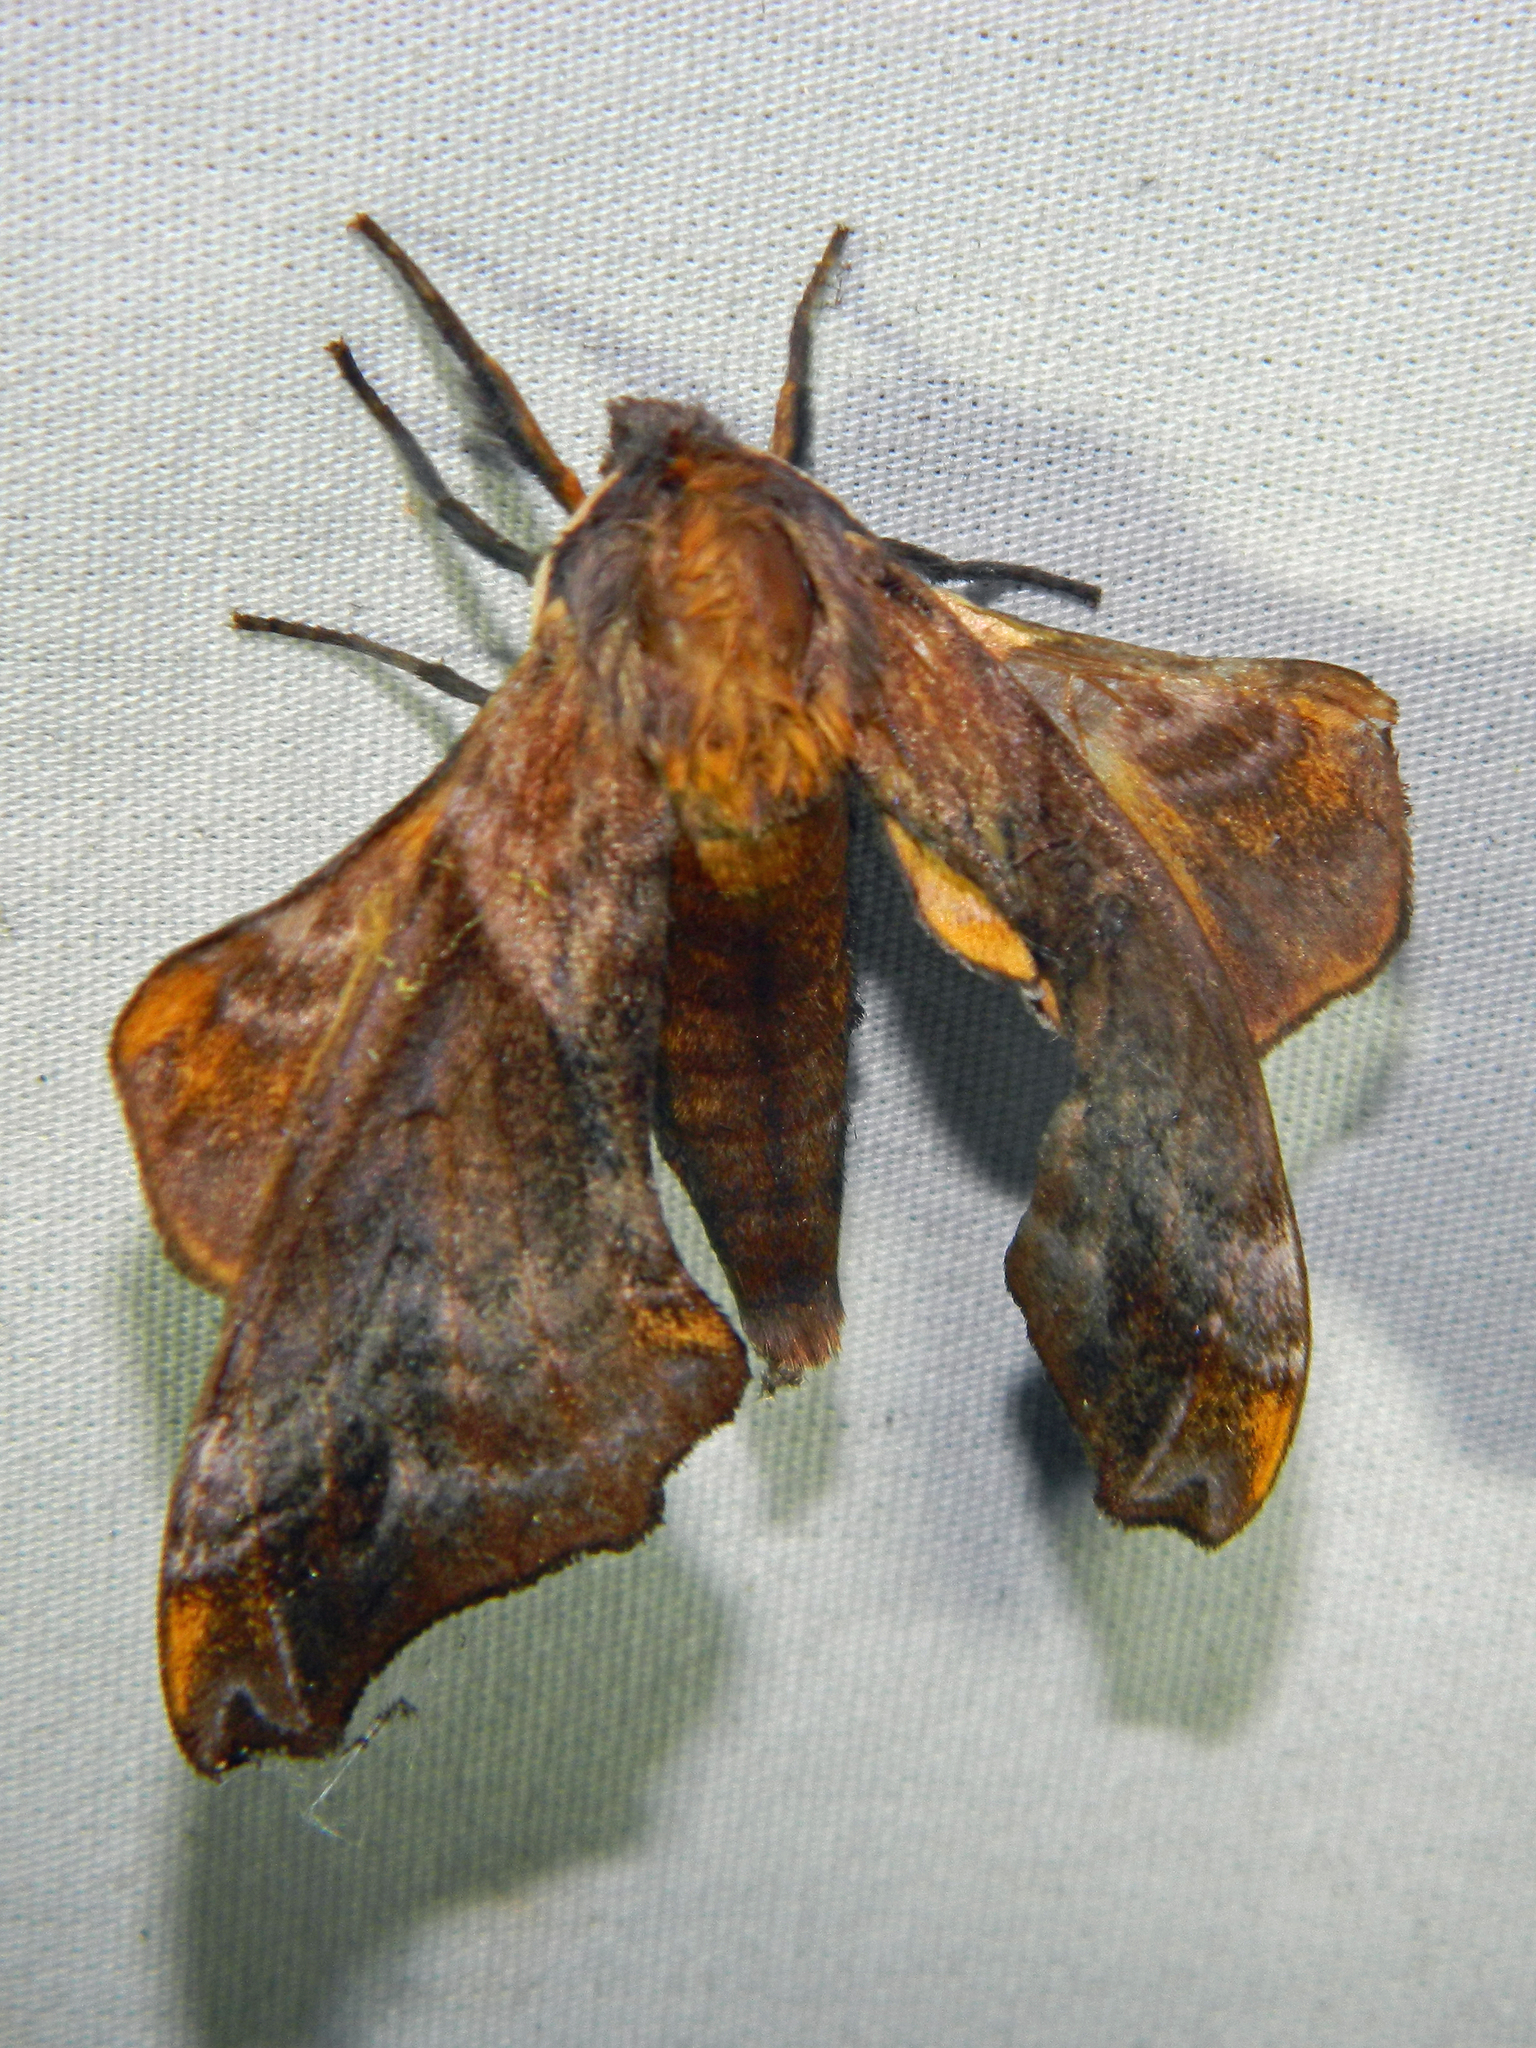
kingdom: Animalia
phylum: Arthropoda
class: Insecta
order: Lepidoptera
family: Sphingidae
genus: Paonias
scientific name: Paonias myops
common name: Small-eyed sphinx
